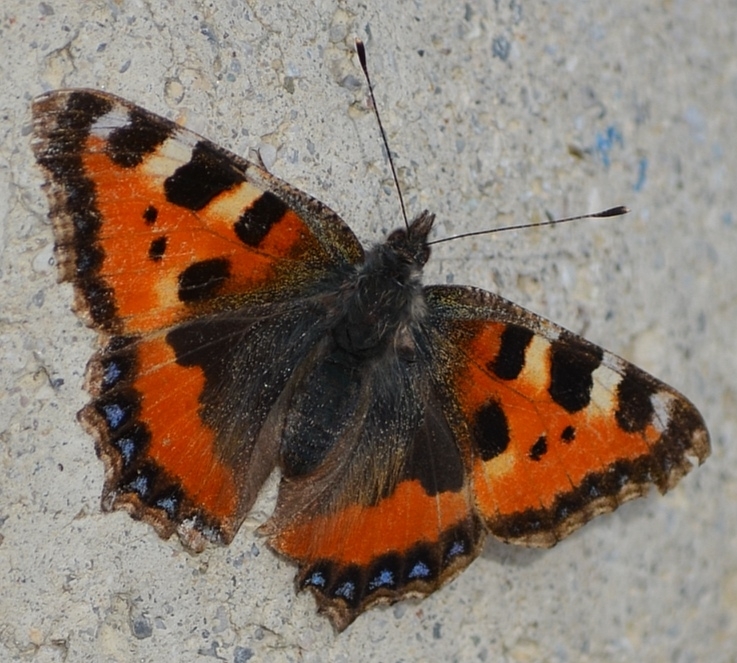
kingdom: Animalia
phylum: Arthropoda
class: Insecta
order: Lepidoptera
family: Nymphalidae
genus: Aglais
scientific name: Aglais urticae
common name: Small tortoiseshell
